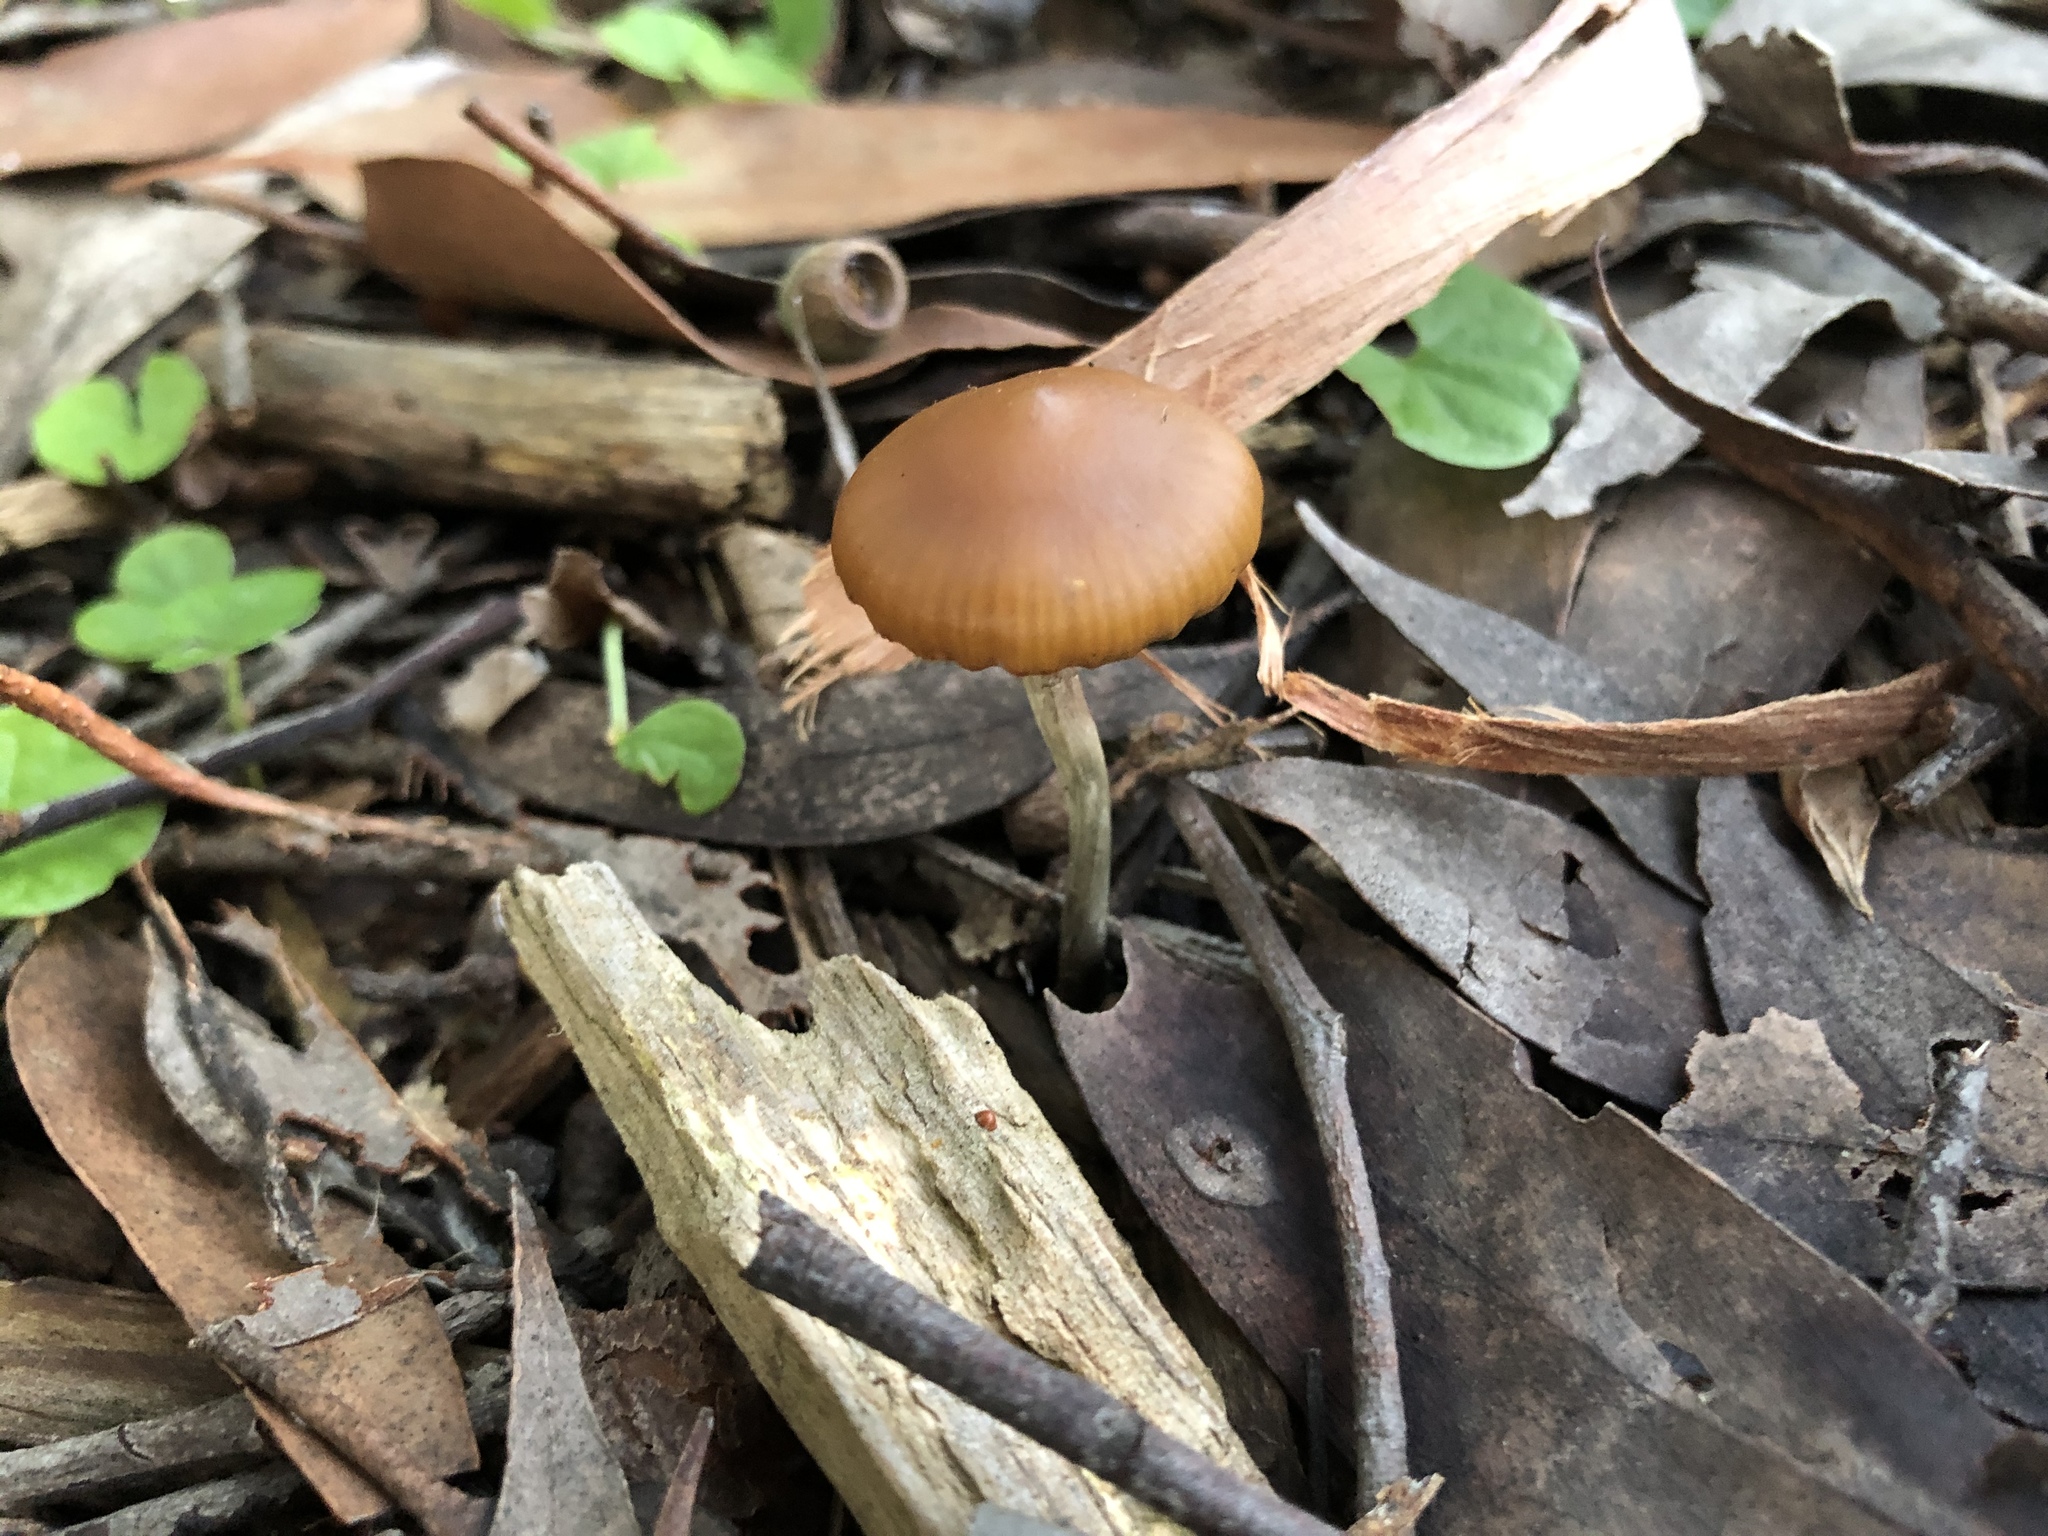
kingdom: Fungi
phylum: Basidiomycota
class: Agaricomycetes
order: Agaricales
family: Hymenogastraceae
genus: Psilocybe
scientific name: Psilocybe subaeruginosa
